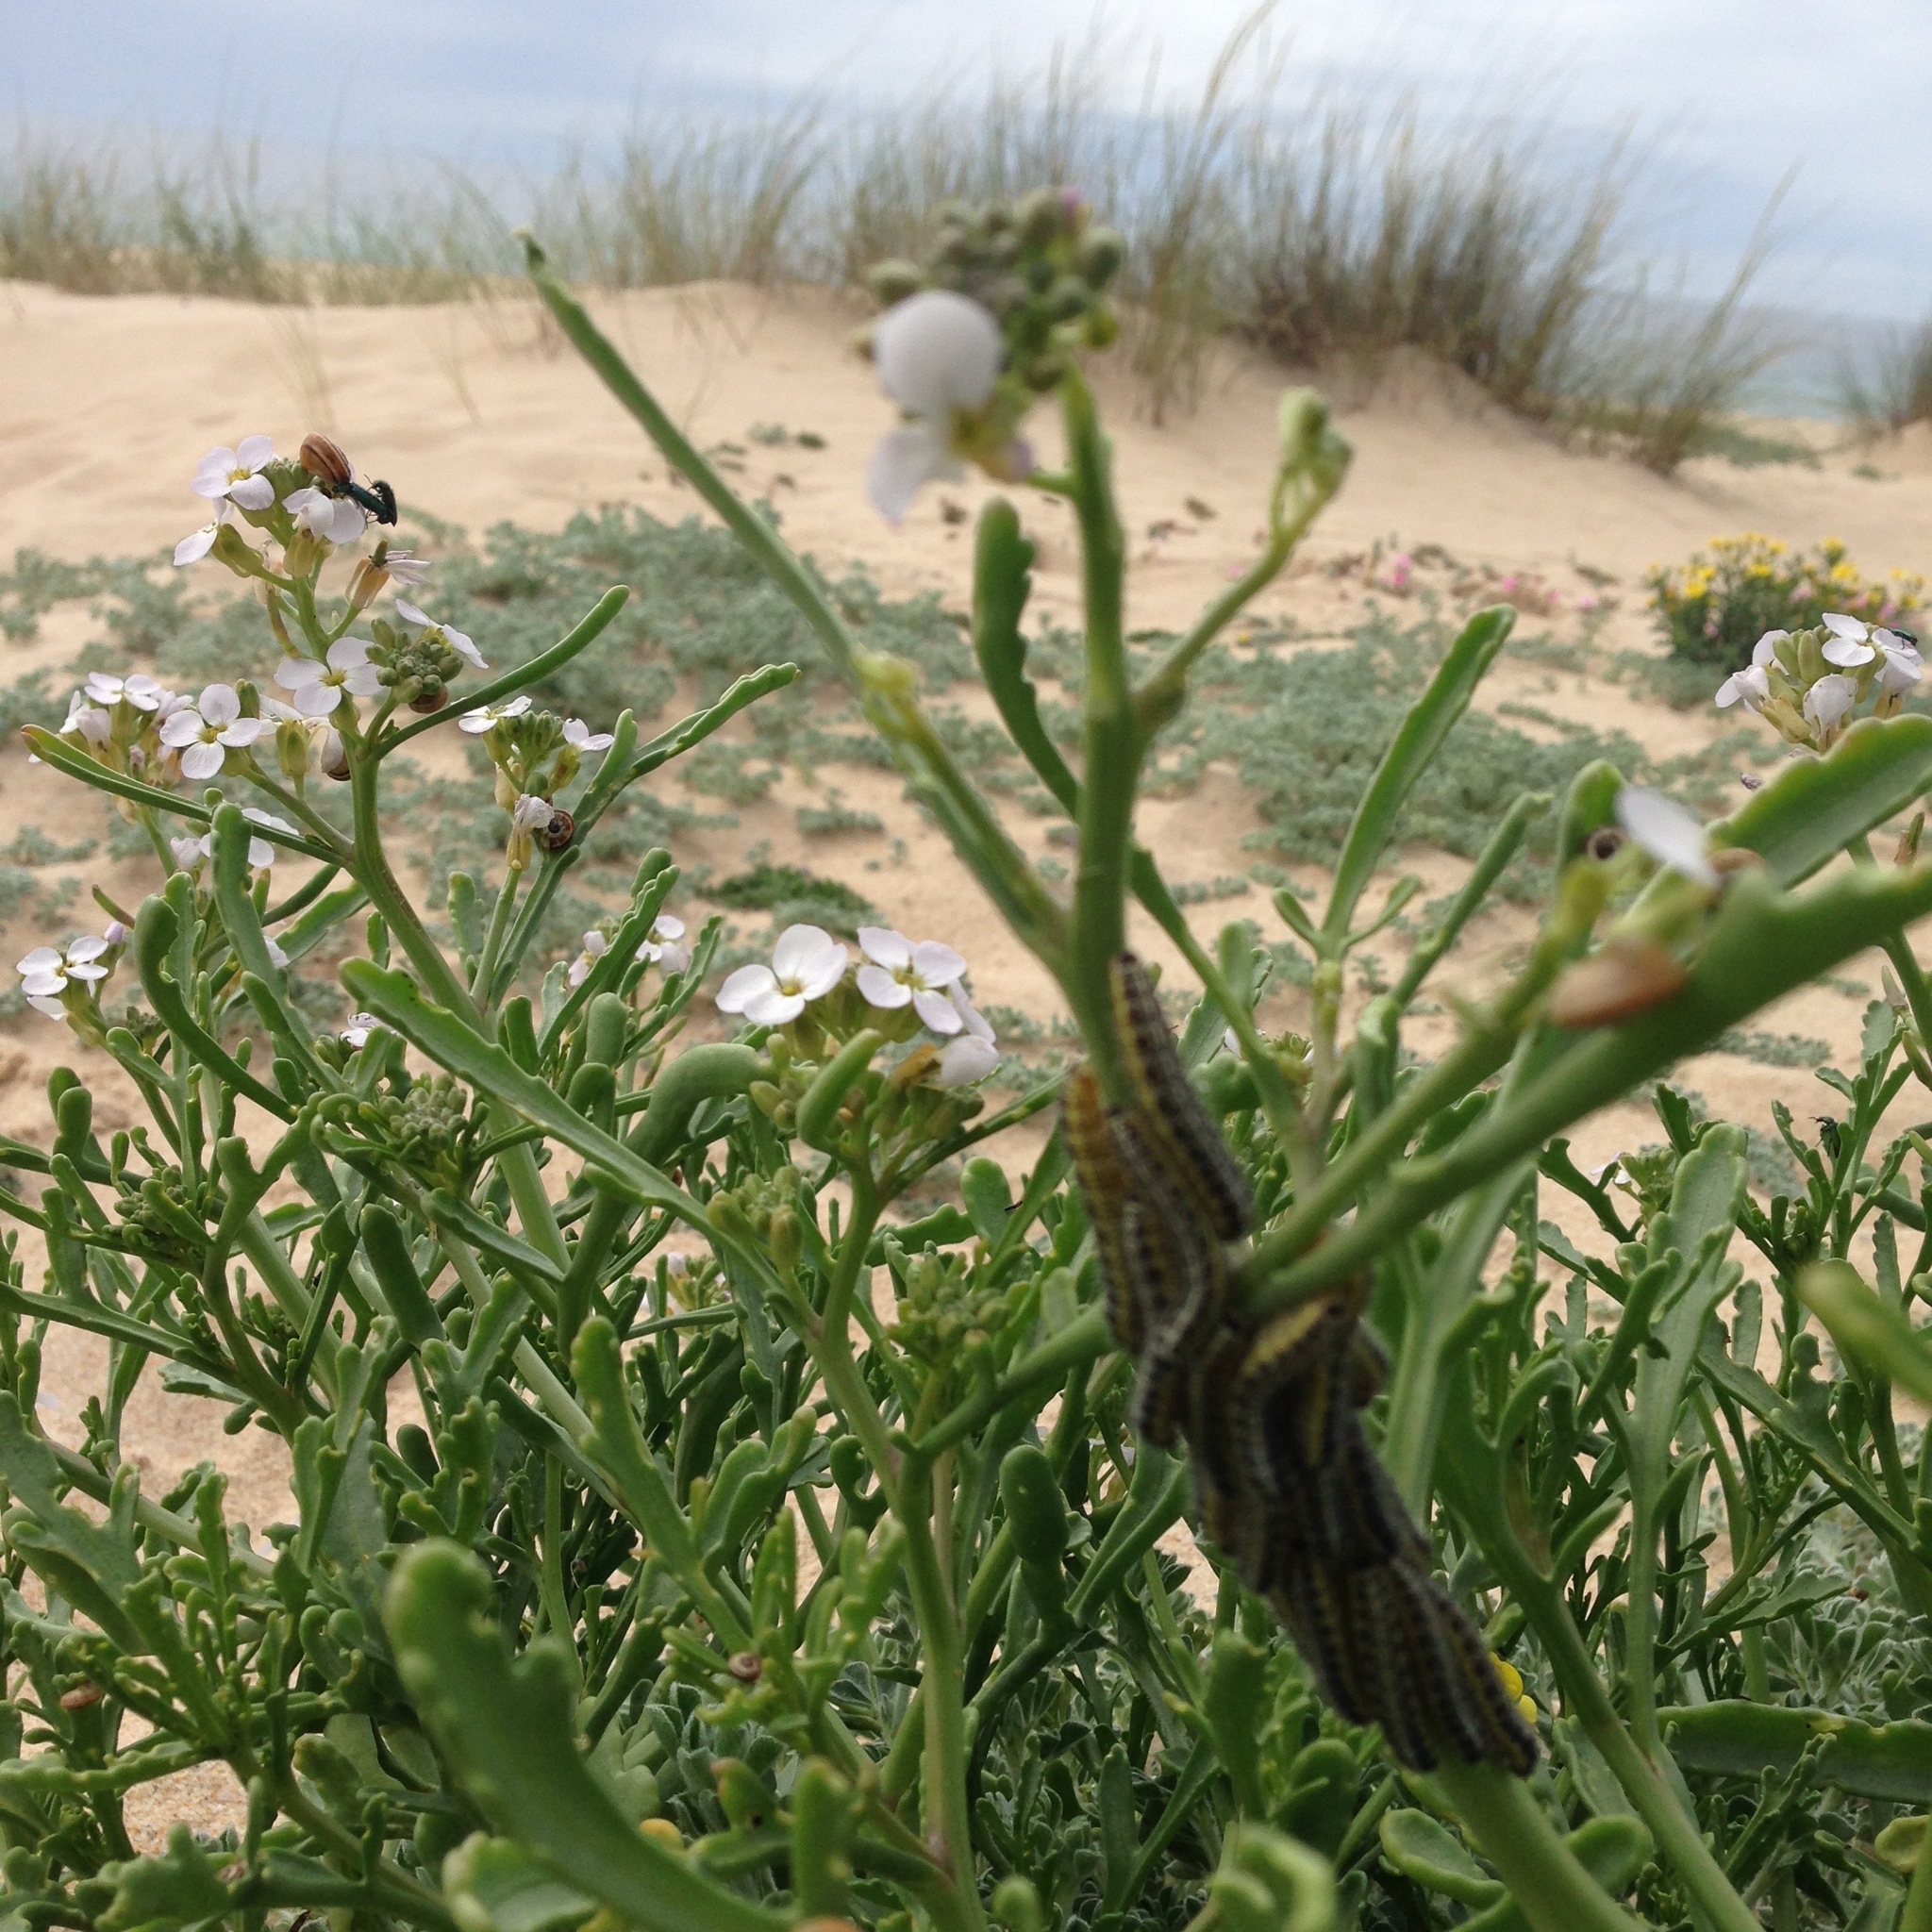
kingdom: Plantae
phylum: Tracheophyta
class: Magnoliopsida
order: Brassicales
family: Brassicaceae
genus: Cakile
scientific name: Cakile maritima
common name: Sea rocket
